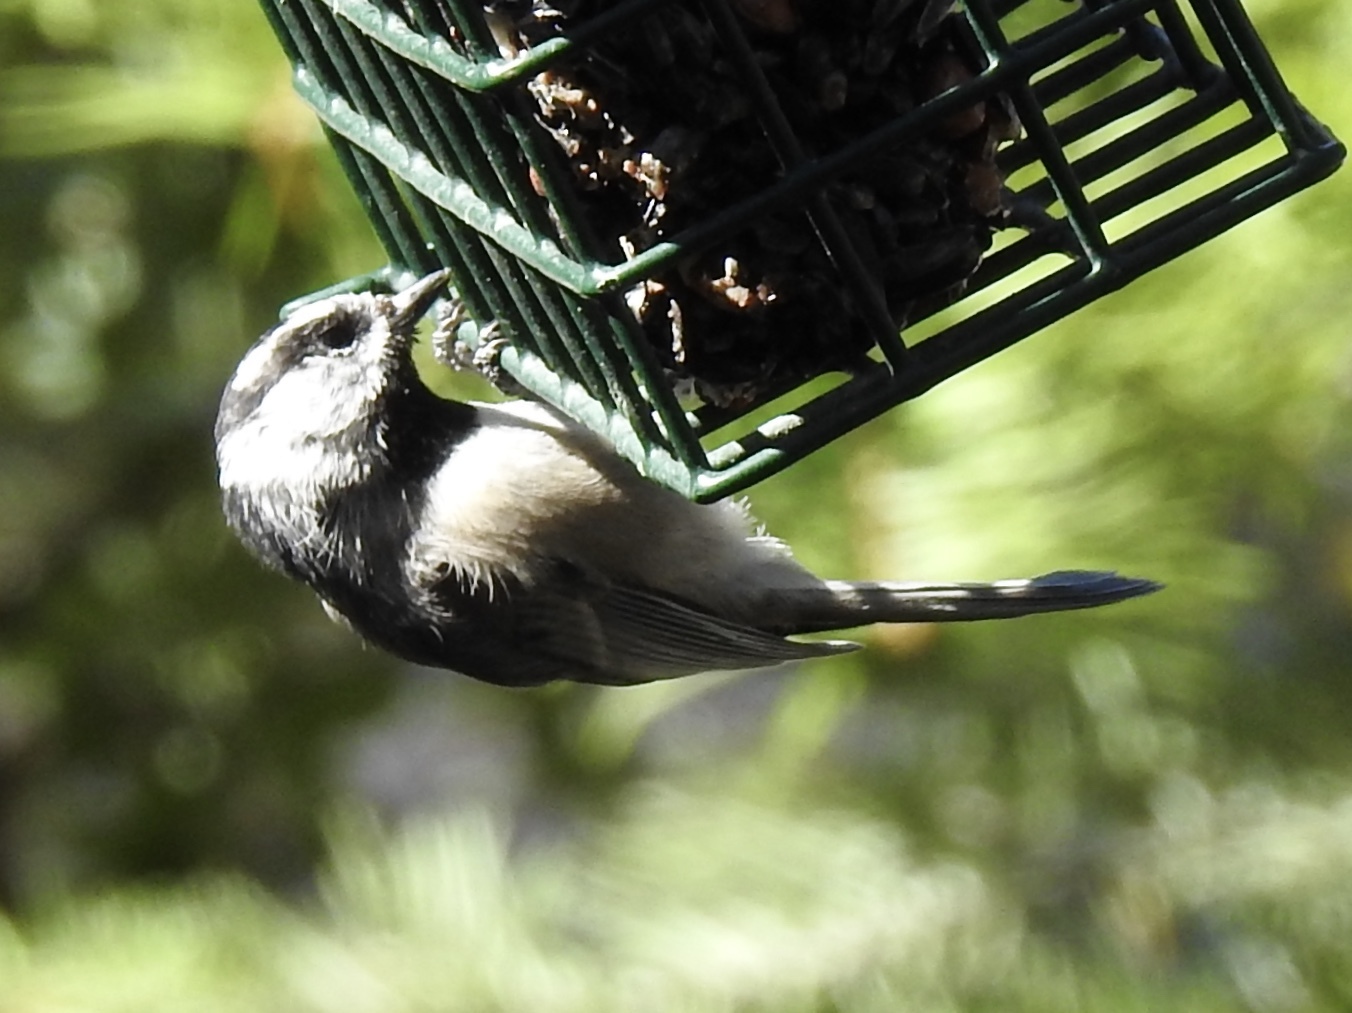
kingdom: Animalia
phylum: Chordata
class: Aves
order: Passeriformes
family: Paridae
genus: Poecile
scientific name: Poecile gambeli
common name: Mountain chickadee
